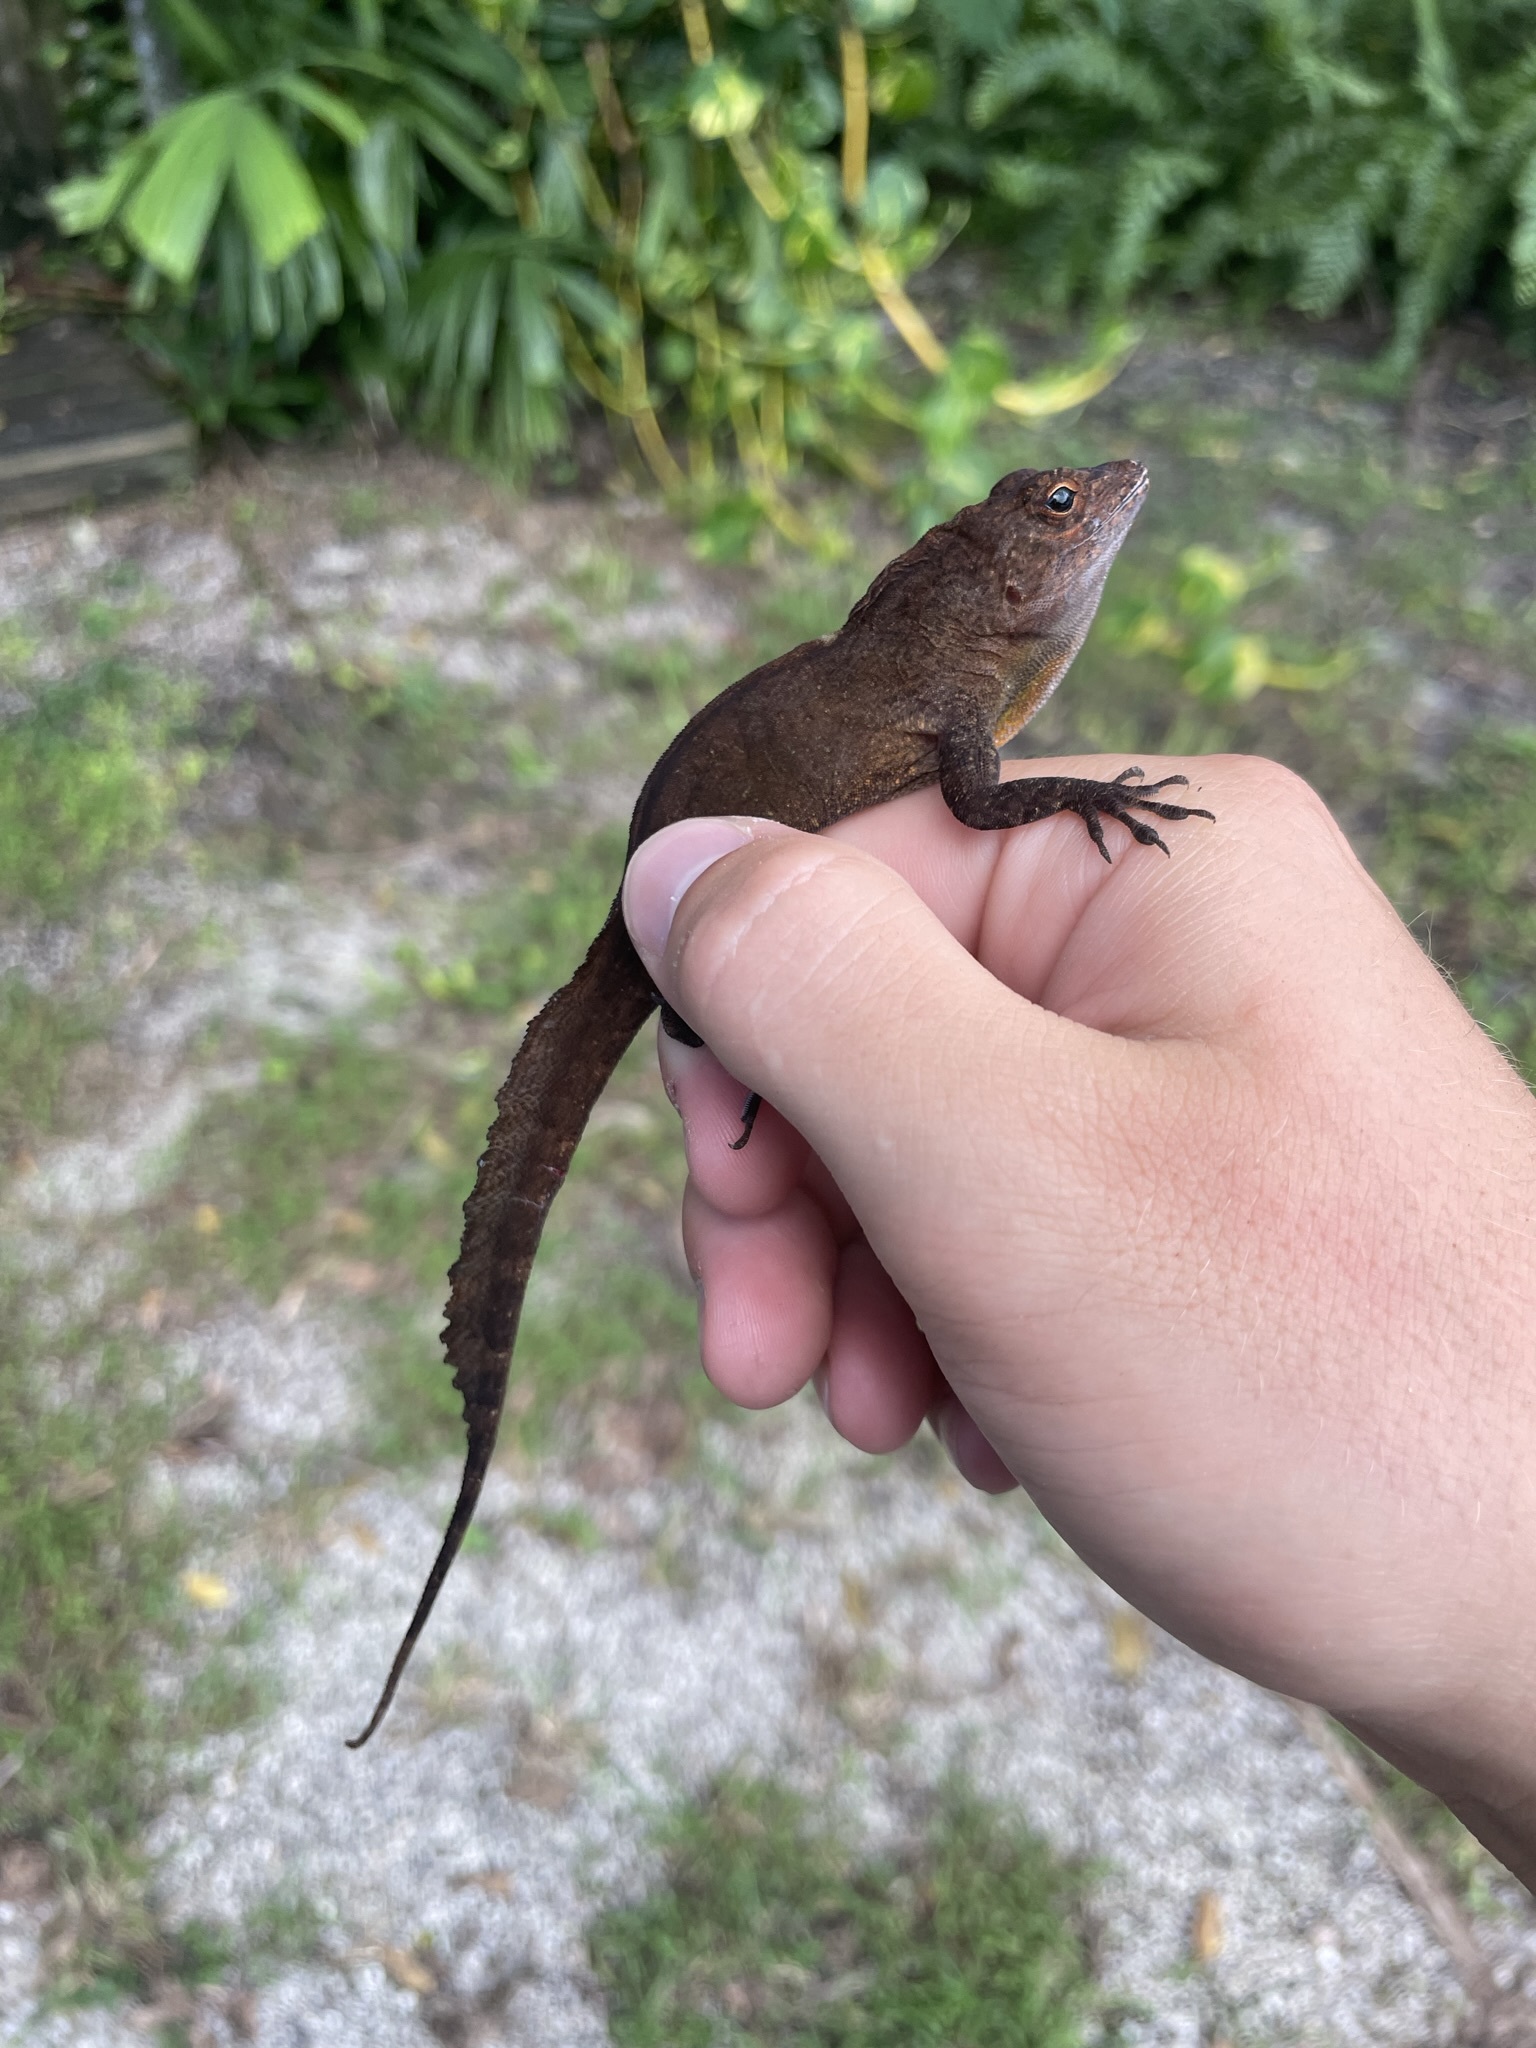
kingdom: Animalia
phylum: Chordata
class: Squamata
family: Dactyloidae
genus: Anolis
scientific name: Anolis cristatellus
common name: Crested anole
